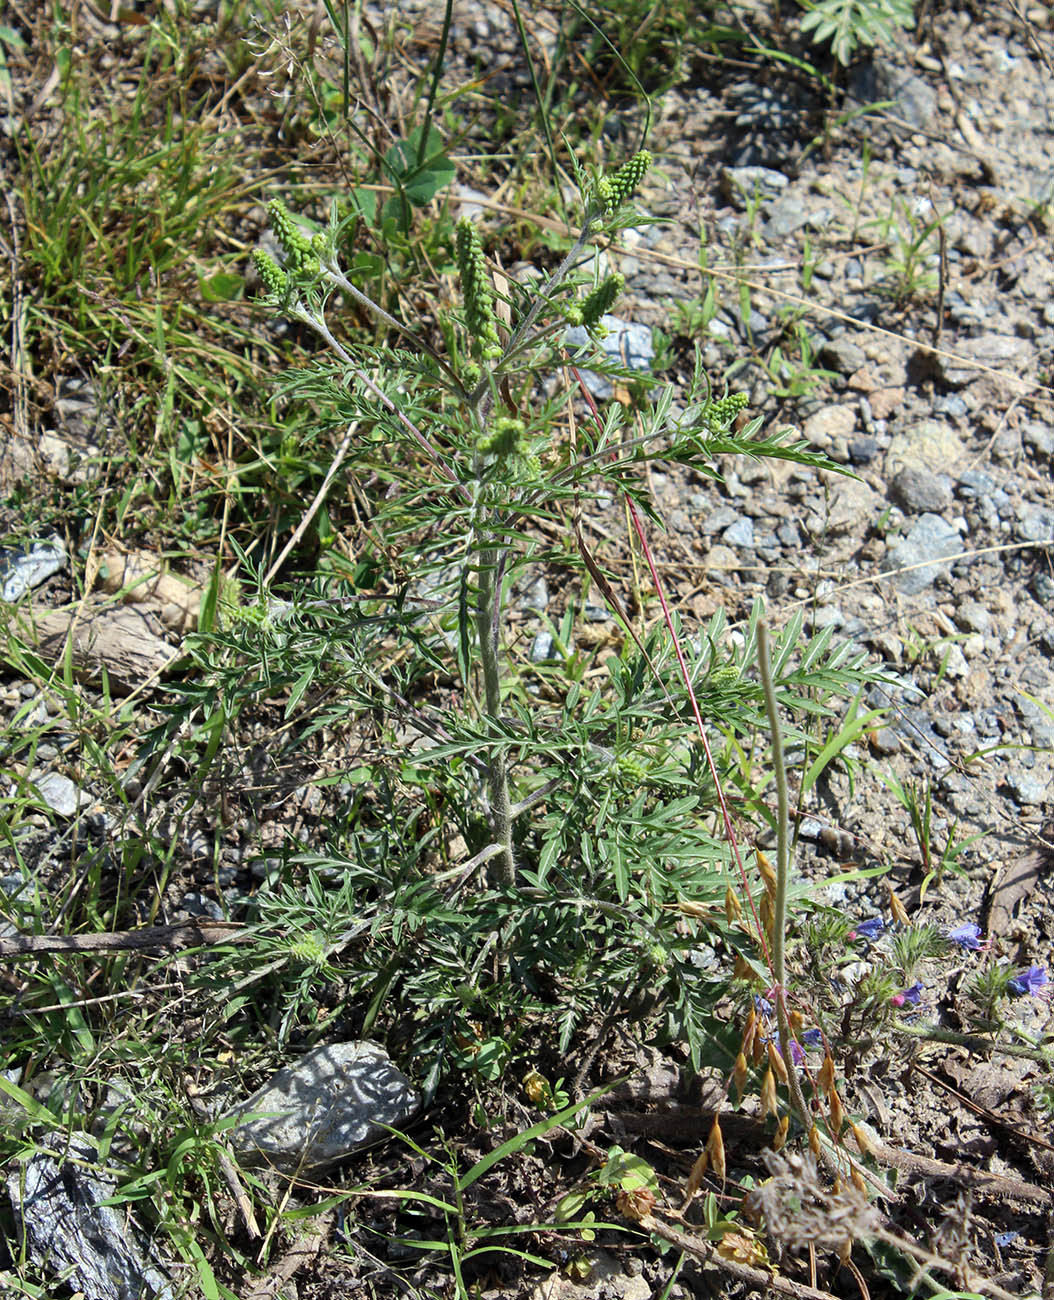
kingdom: Plantae
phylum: Tracheophyta
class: Magnoliopsida
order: Asterales
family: Asteraceae
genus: Ambrosia
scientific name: Ambrosia artemisiifolia
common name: Annual ragweed
